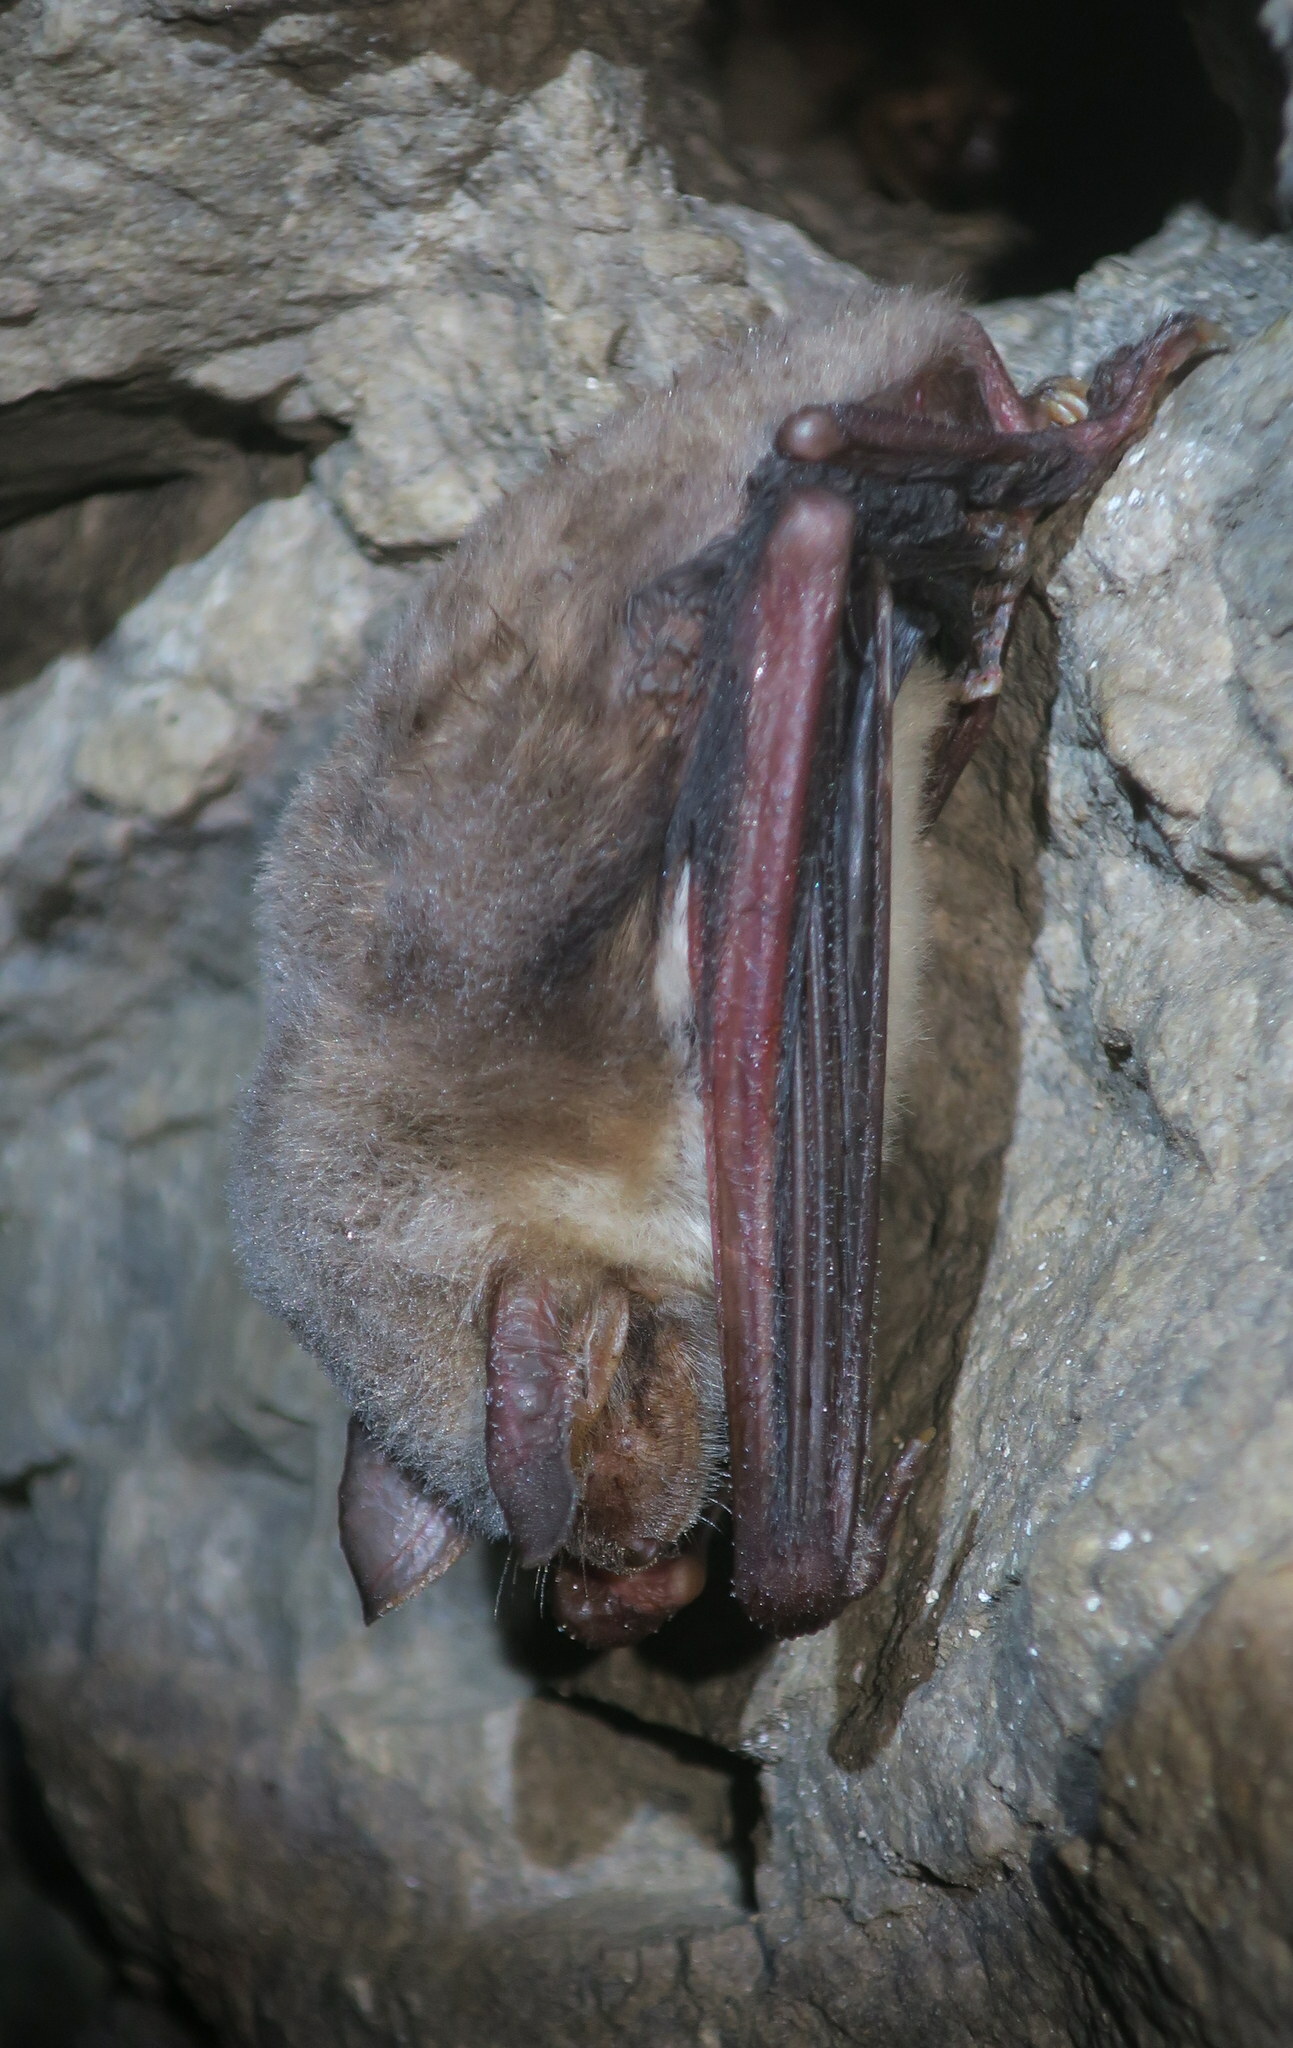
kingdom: Animalia
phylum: Chordata
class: Mammalia
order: Chiroptera
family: Vespertilionidae
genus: Myotis
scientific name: Myotis myotis
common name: Greater mouse-eared bat
